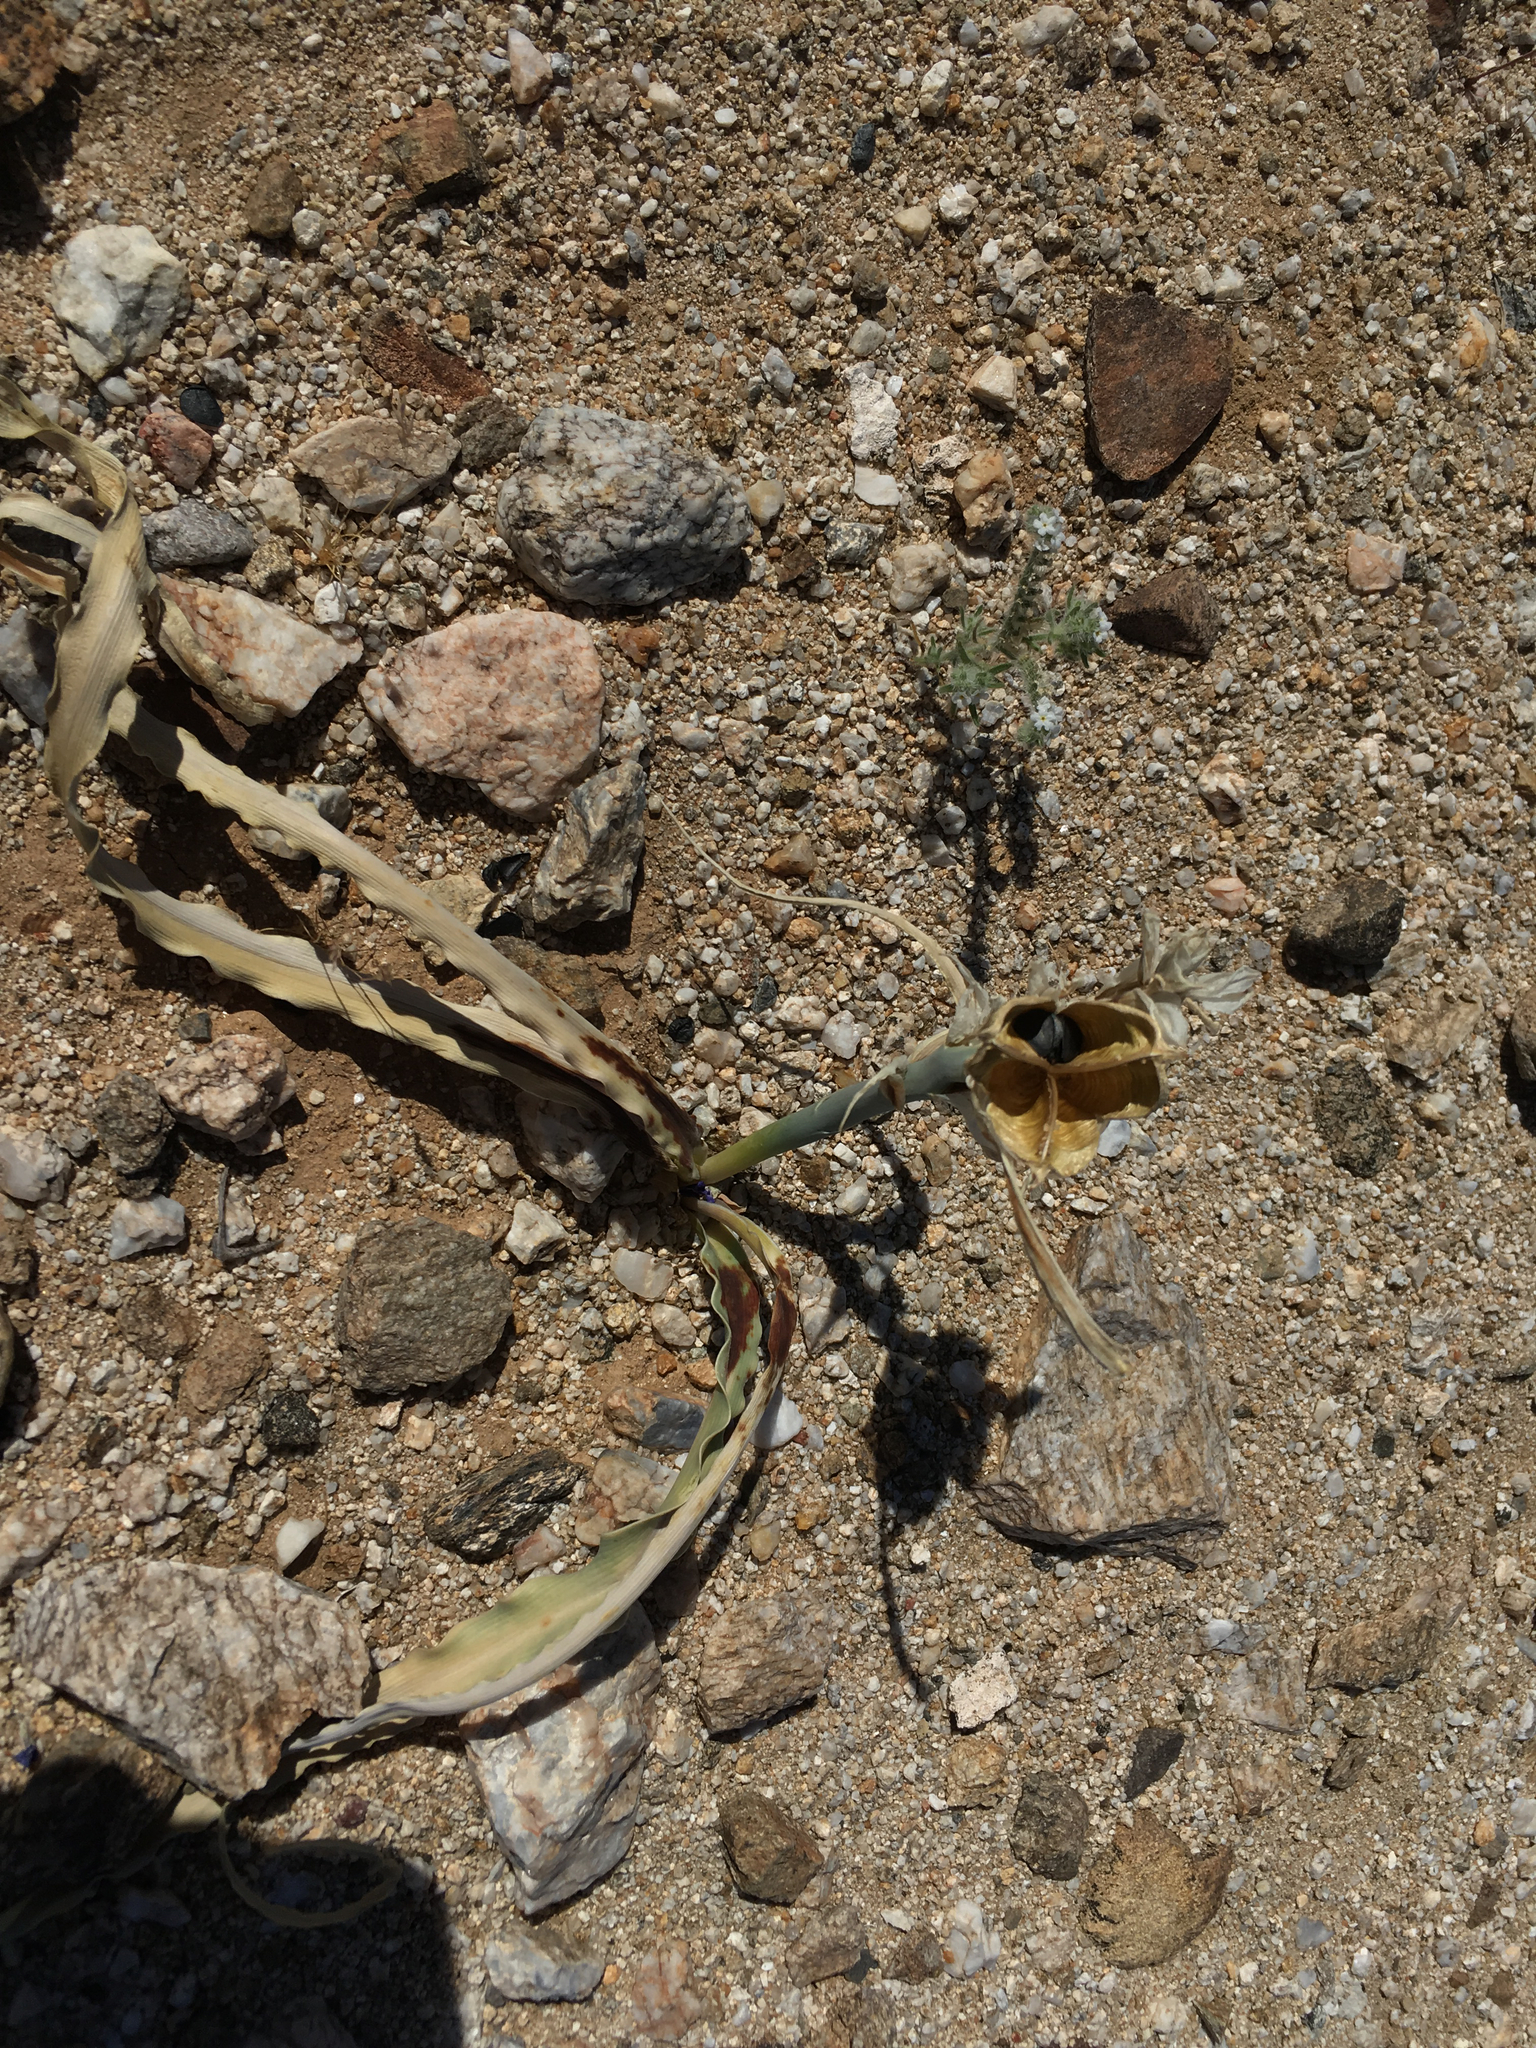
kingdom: Plantae
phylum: Tracheophyta
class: Liliopsida
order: Asparagales
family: Asparagaceae
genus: Hesperocallis
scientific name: Hesperocallis undulata
